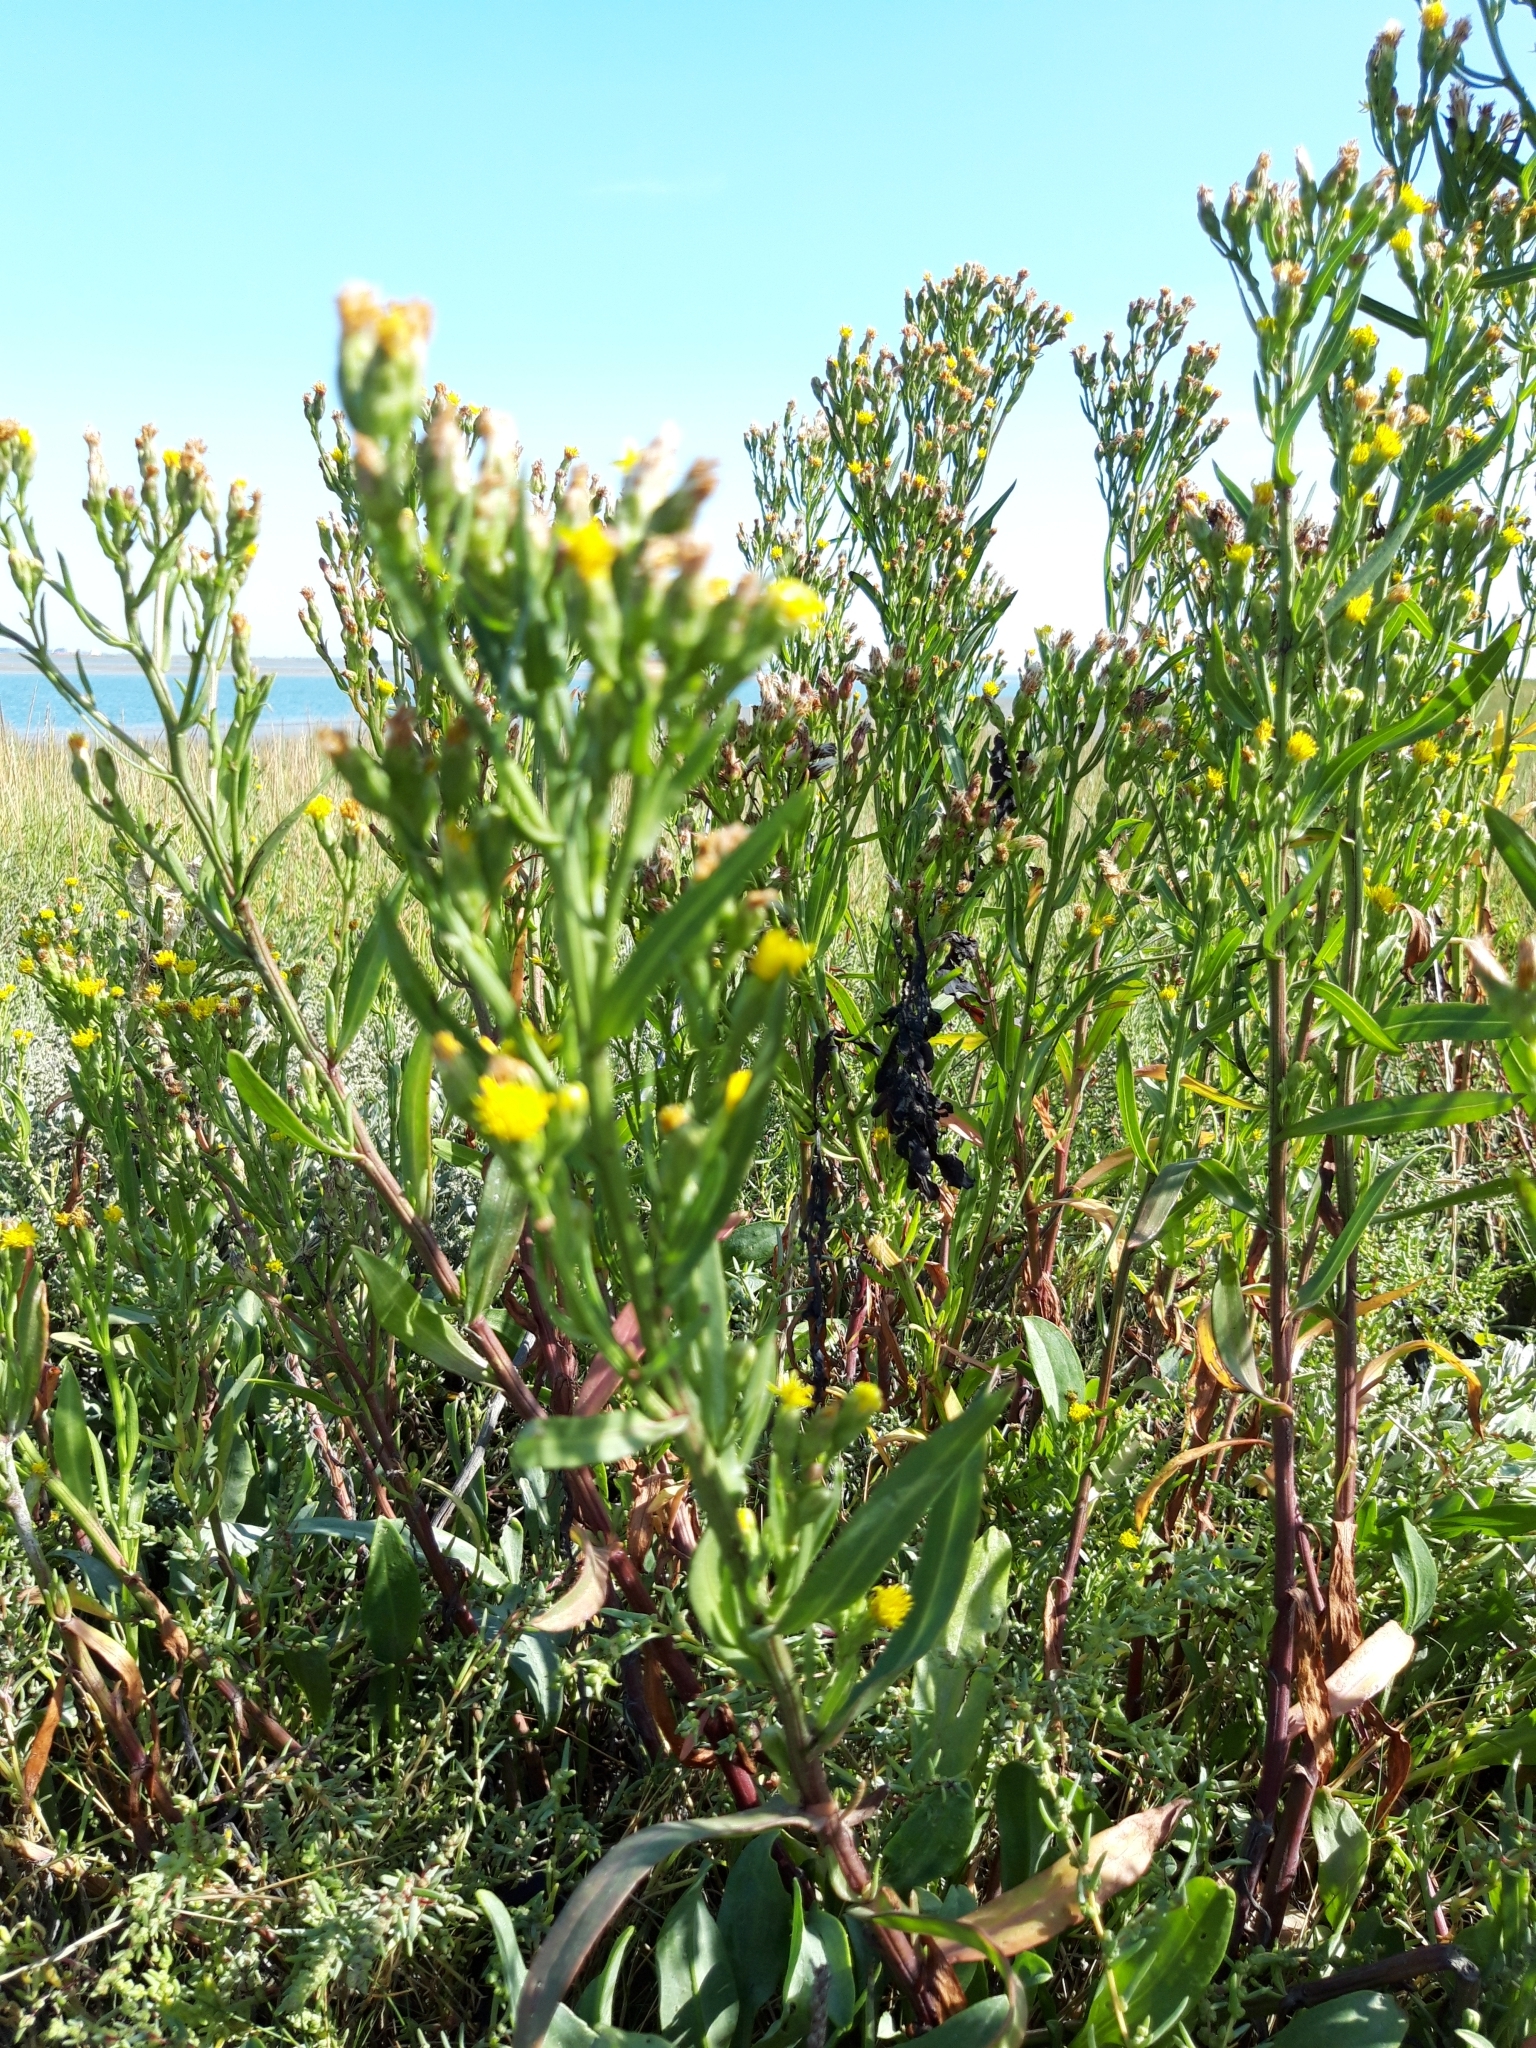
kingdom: Plantae
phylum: Tracheophyta
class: Magnoliopsida
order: Asterales
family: Asteraceae
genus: Tripolium
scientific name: Tripolium pannonicum
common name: Sea aster
